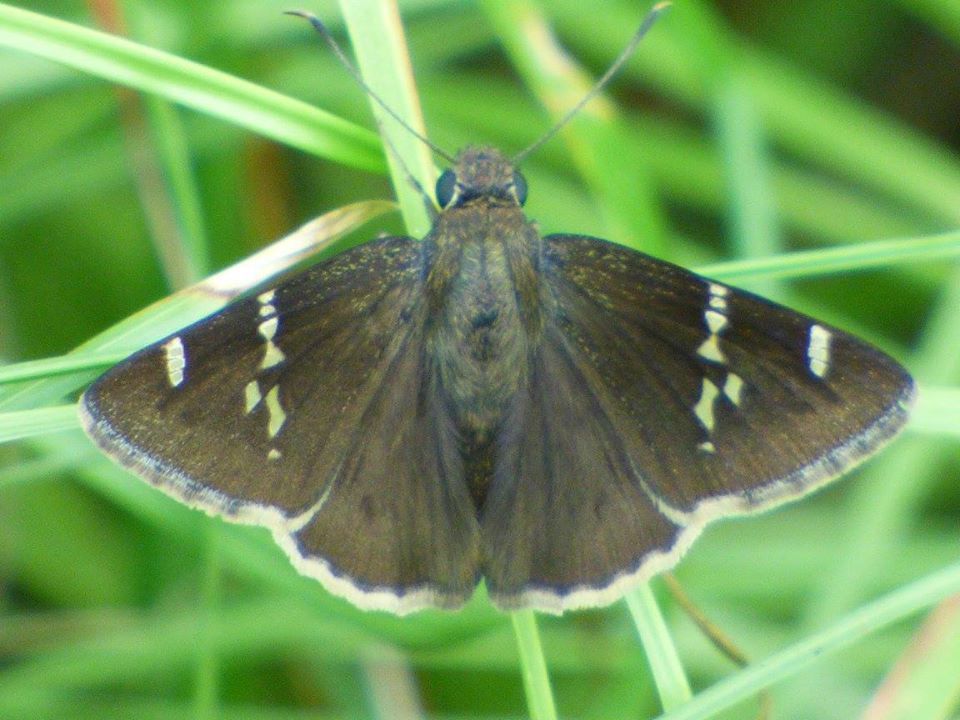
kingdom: Animalia
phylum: Arthropoda
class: Insecta
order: Lepidoptera
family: Hesperiidae
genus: Thorybes
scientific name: Thorybes daunus
